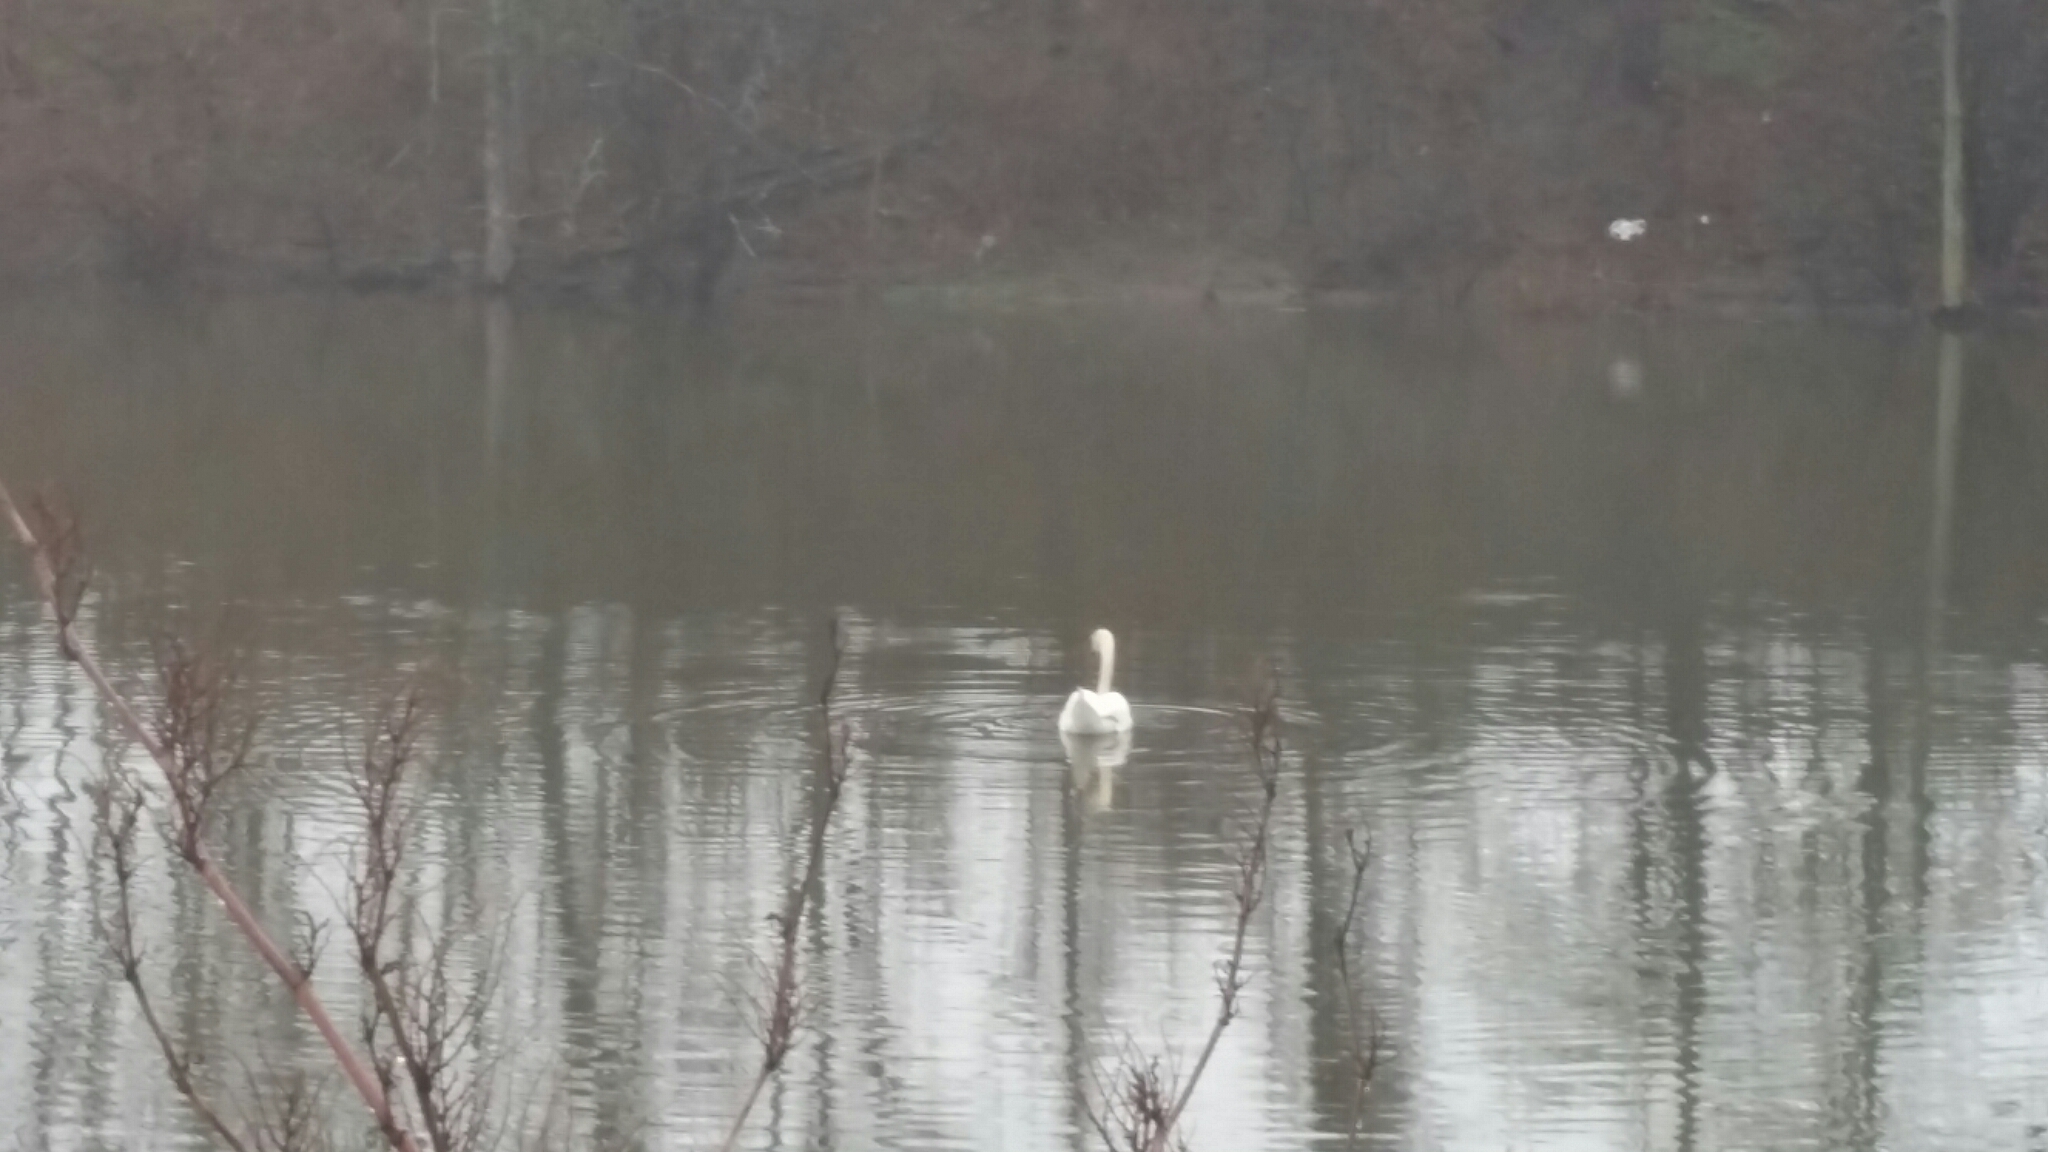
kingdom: Animalia
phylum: Chordata
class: Aves
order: Anseriformes
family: Anatidae
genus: Cygnus
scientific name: Cygnus olor
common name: Mute swan
